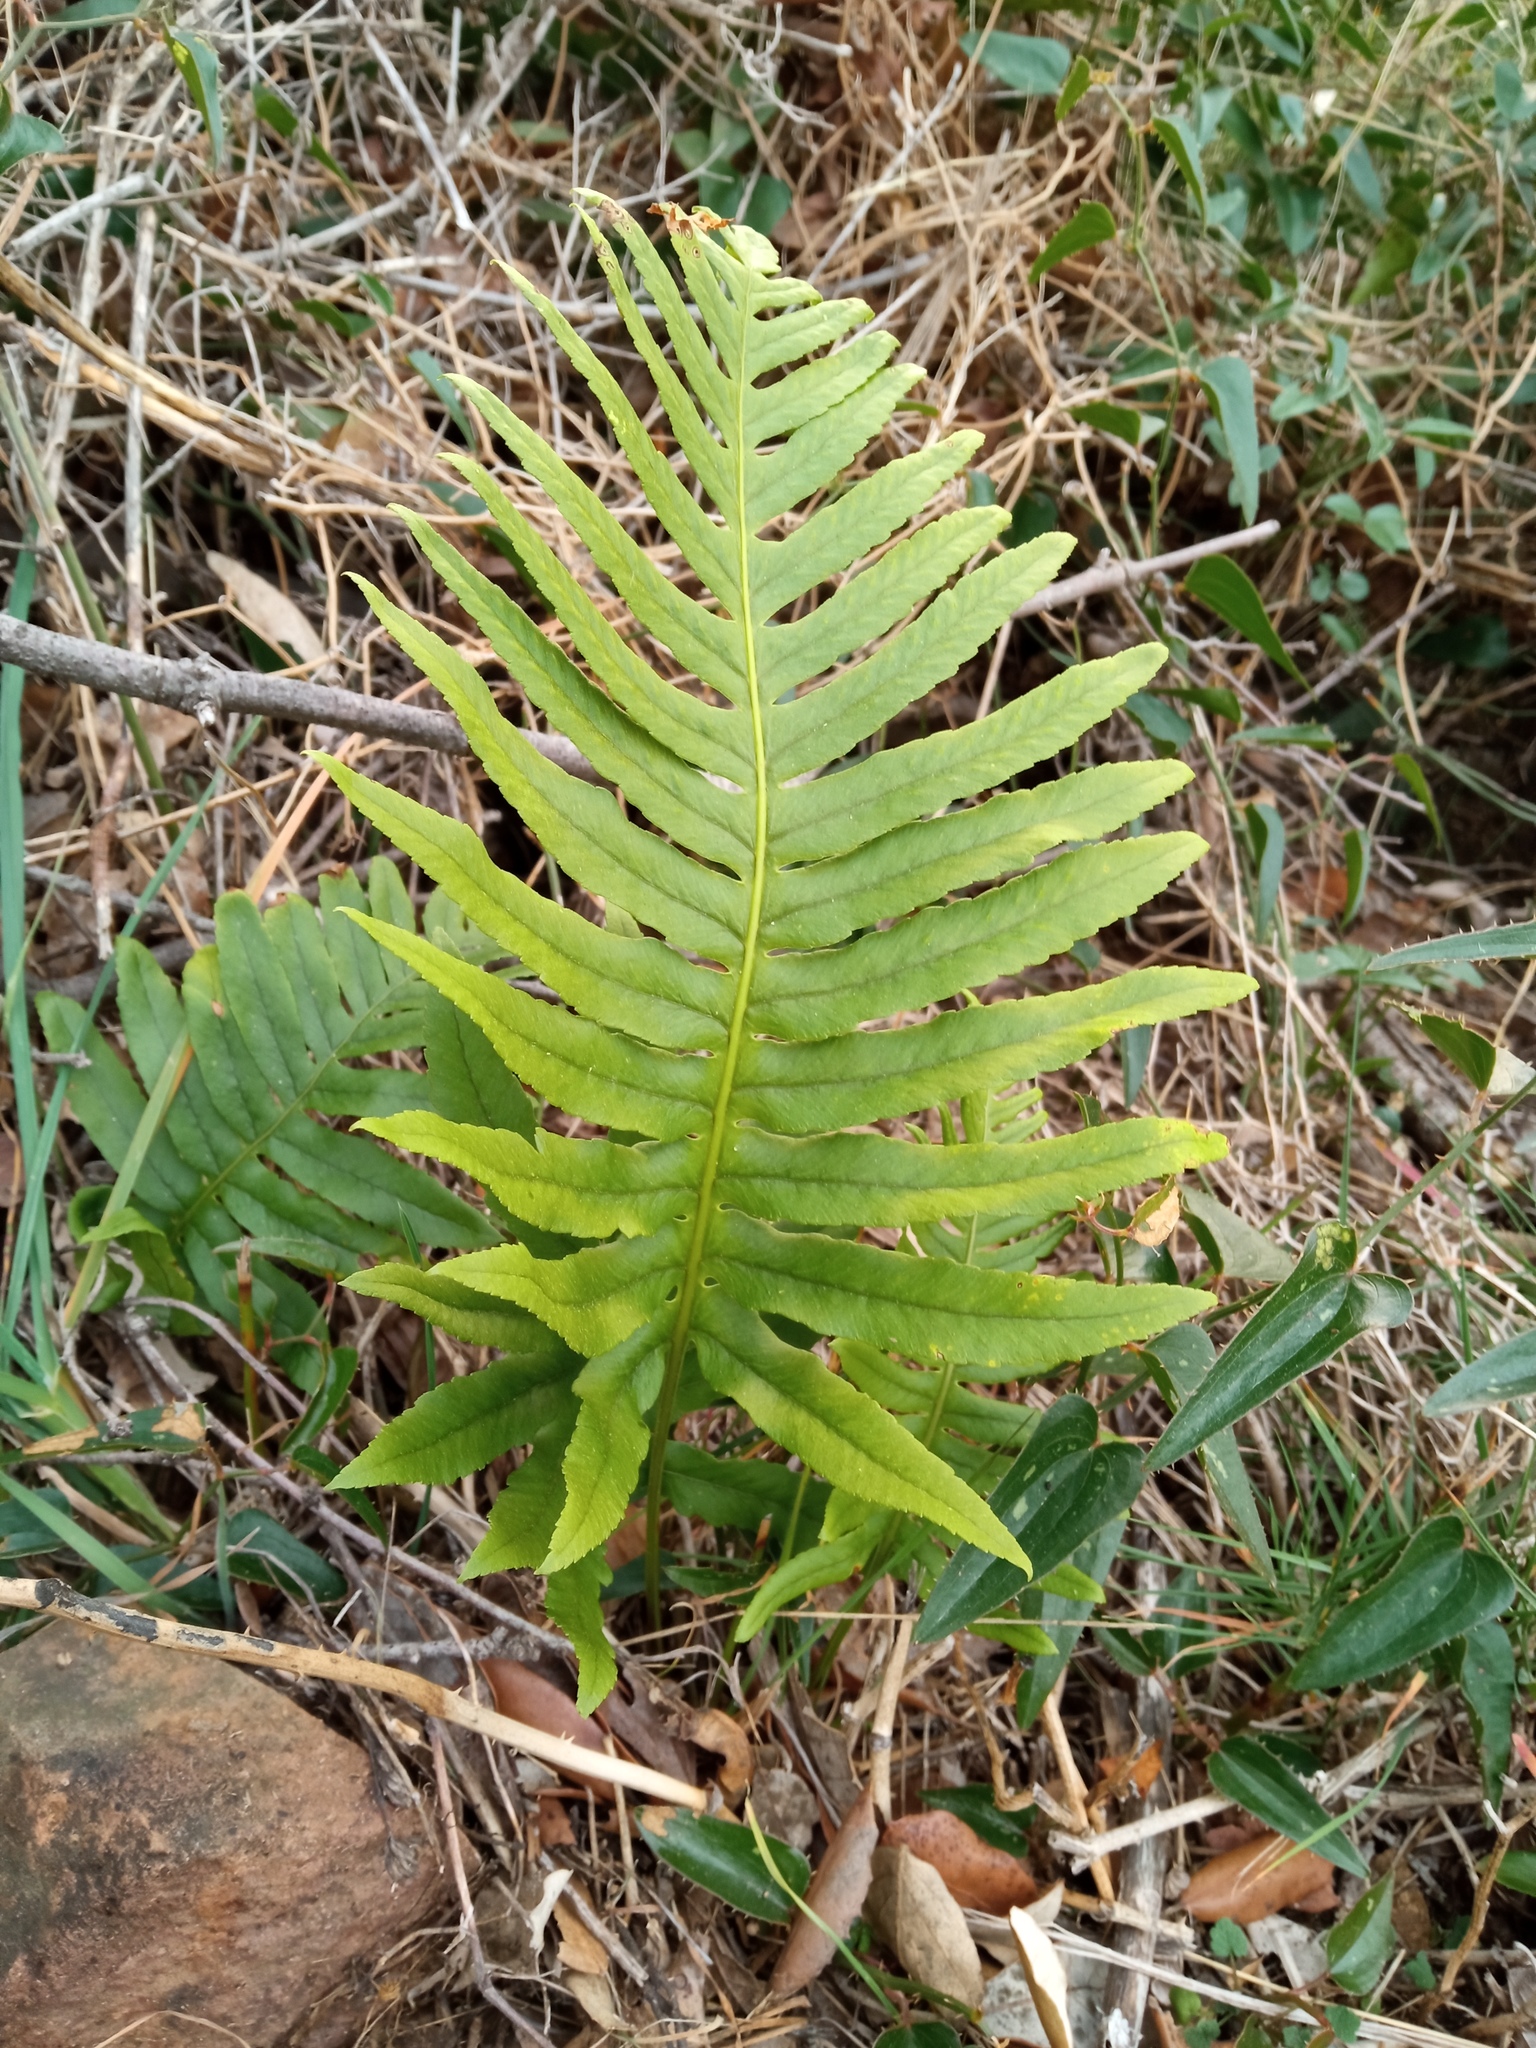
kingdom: Plantae
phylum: Tracheophyta
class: Polypodiopsida
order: Polypodiales
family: Polypodiaceae
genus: Polypodium
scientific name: Polypodium cambricum
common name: Southern polypody
